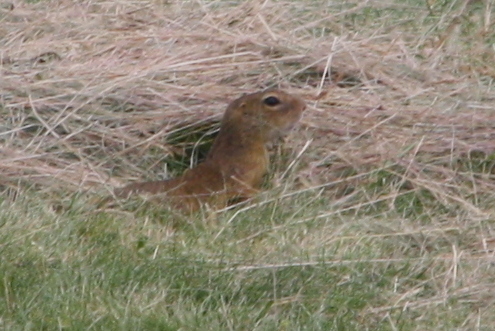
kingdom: Animalia
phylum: Chordata
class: Mammalia
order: Rodentia
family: Sciuridae
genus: Spermophilus
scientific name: Spermophilus citellus
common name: European ground squirrel
